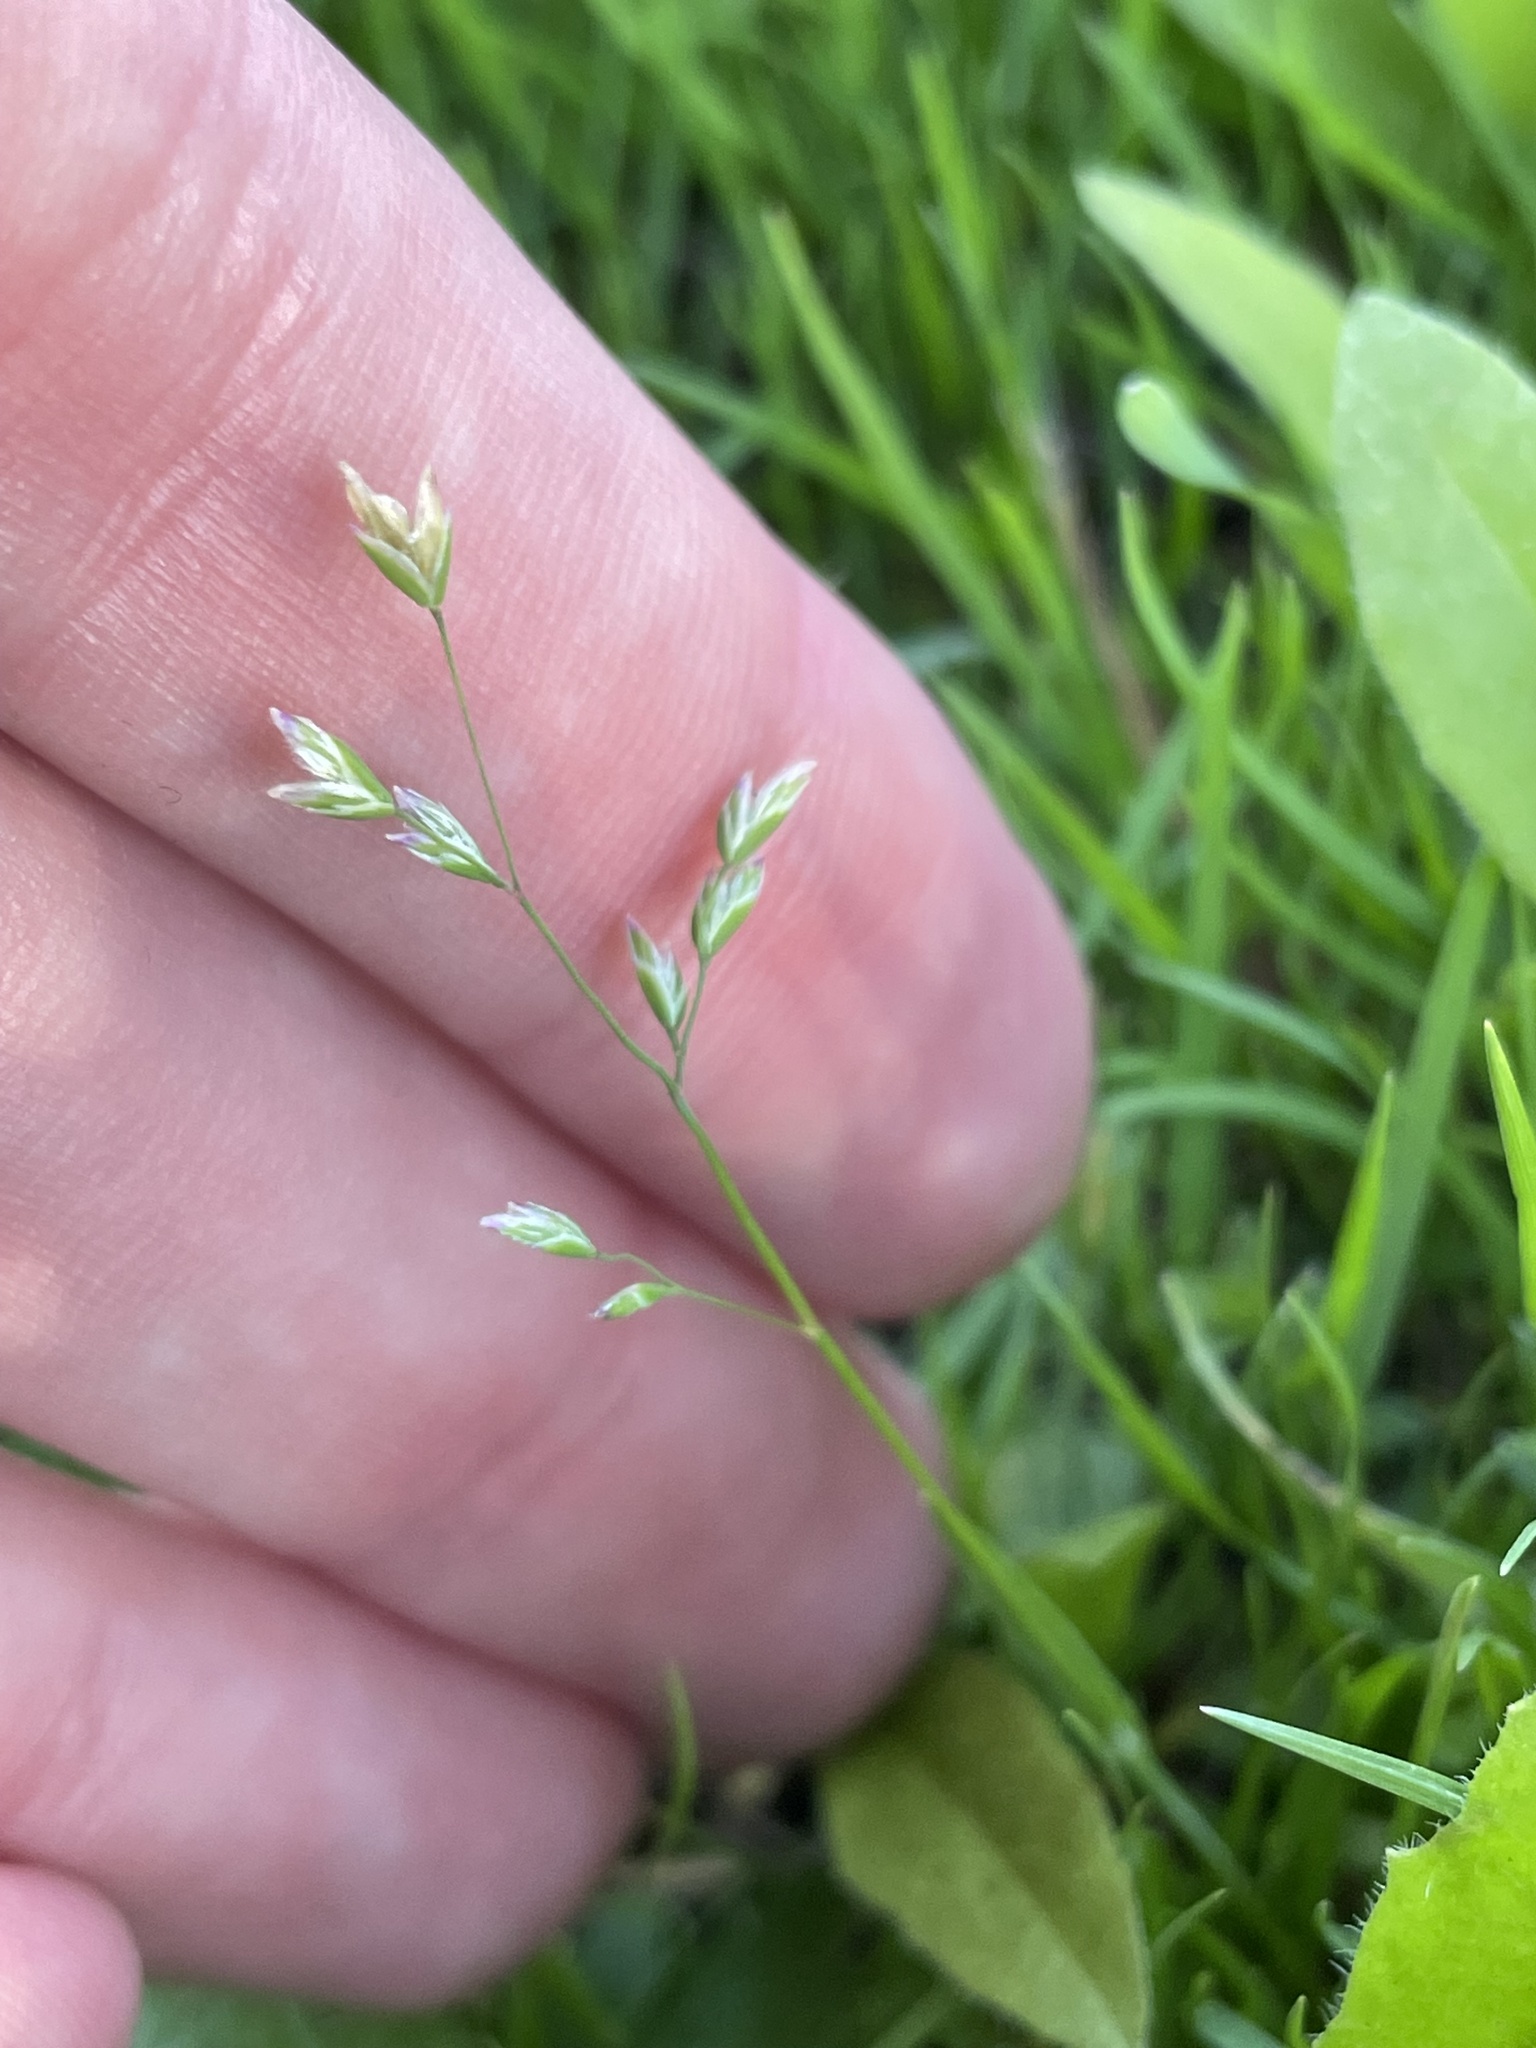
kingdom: Plantae
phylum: Tracheophyta
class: Liliopsida
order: Poales
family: Poaceae
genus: Poa
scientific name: Poa annua
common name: Annual bluegrass
